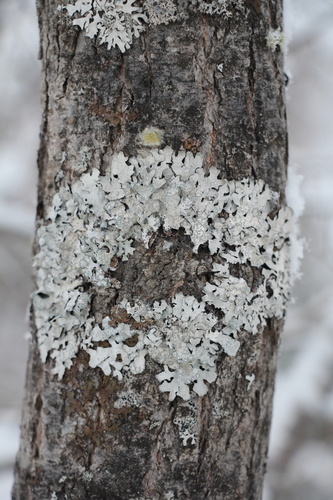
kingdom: Fungi
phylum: Ascomycota
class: Lecanoromycetes
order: Lecanorales
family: Parmeliaceae
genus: Parmelia
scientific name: Parmelia sulcata
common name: Netted shield lichen
